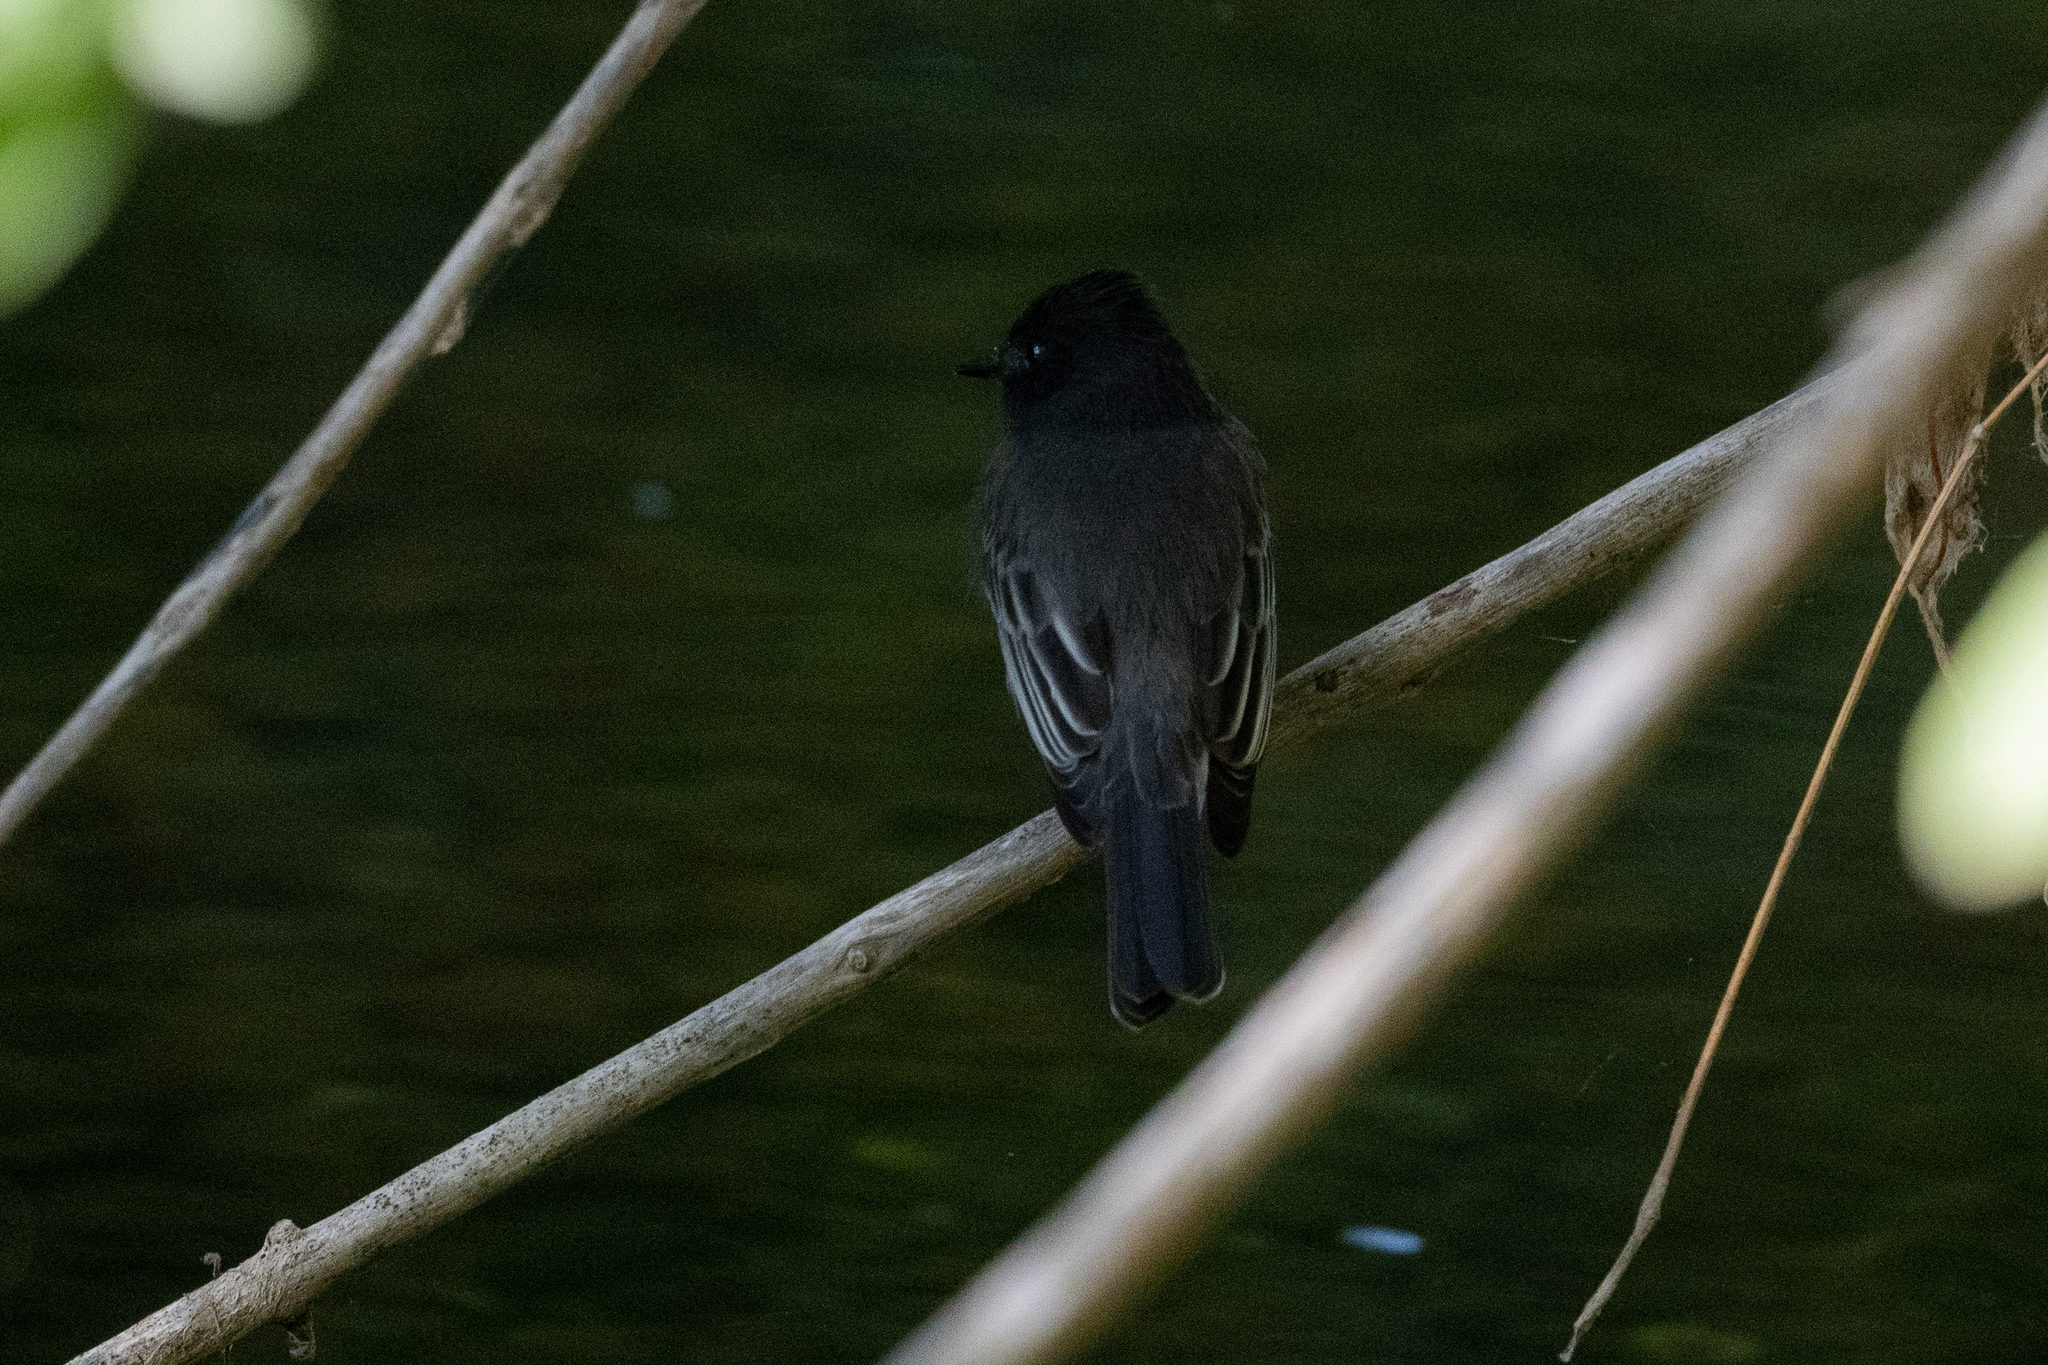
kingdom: Animalia
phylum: Chordata
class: Aves
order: Passeriformes
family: Tyrannidae
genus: Sayornis
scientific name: Sayornis nigricans
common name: Black phoebe
